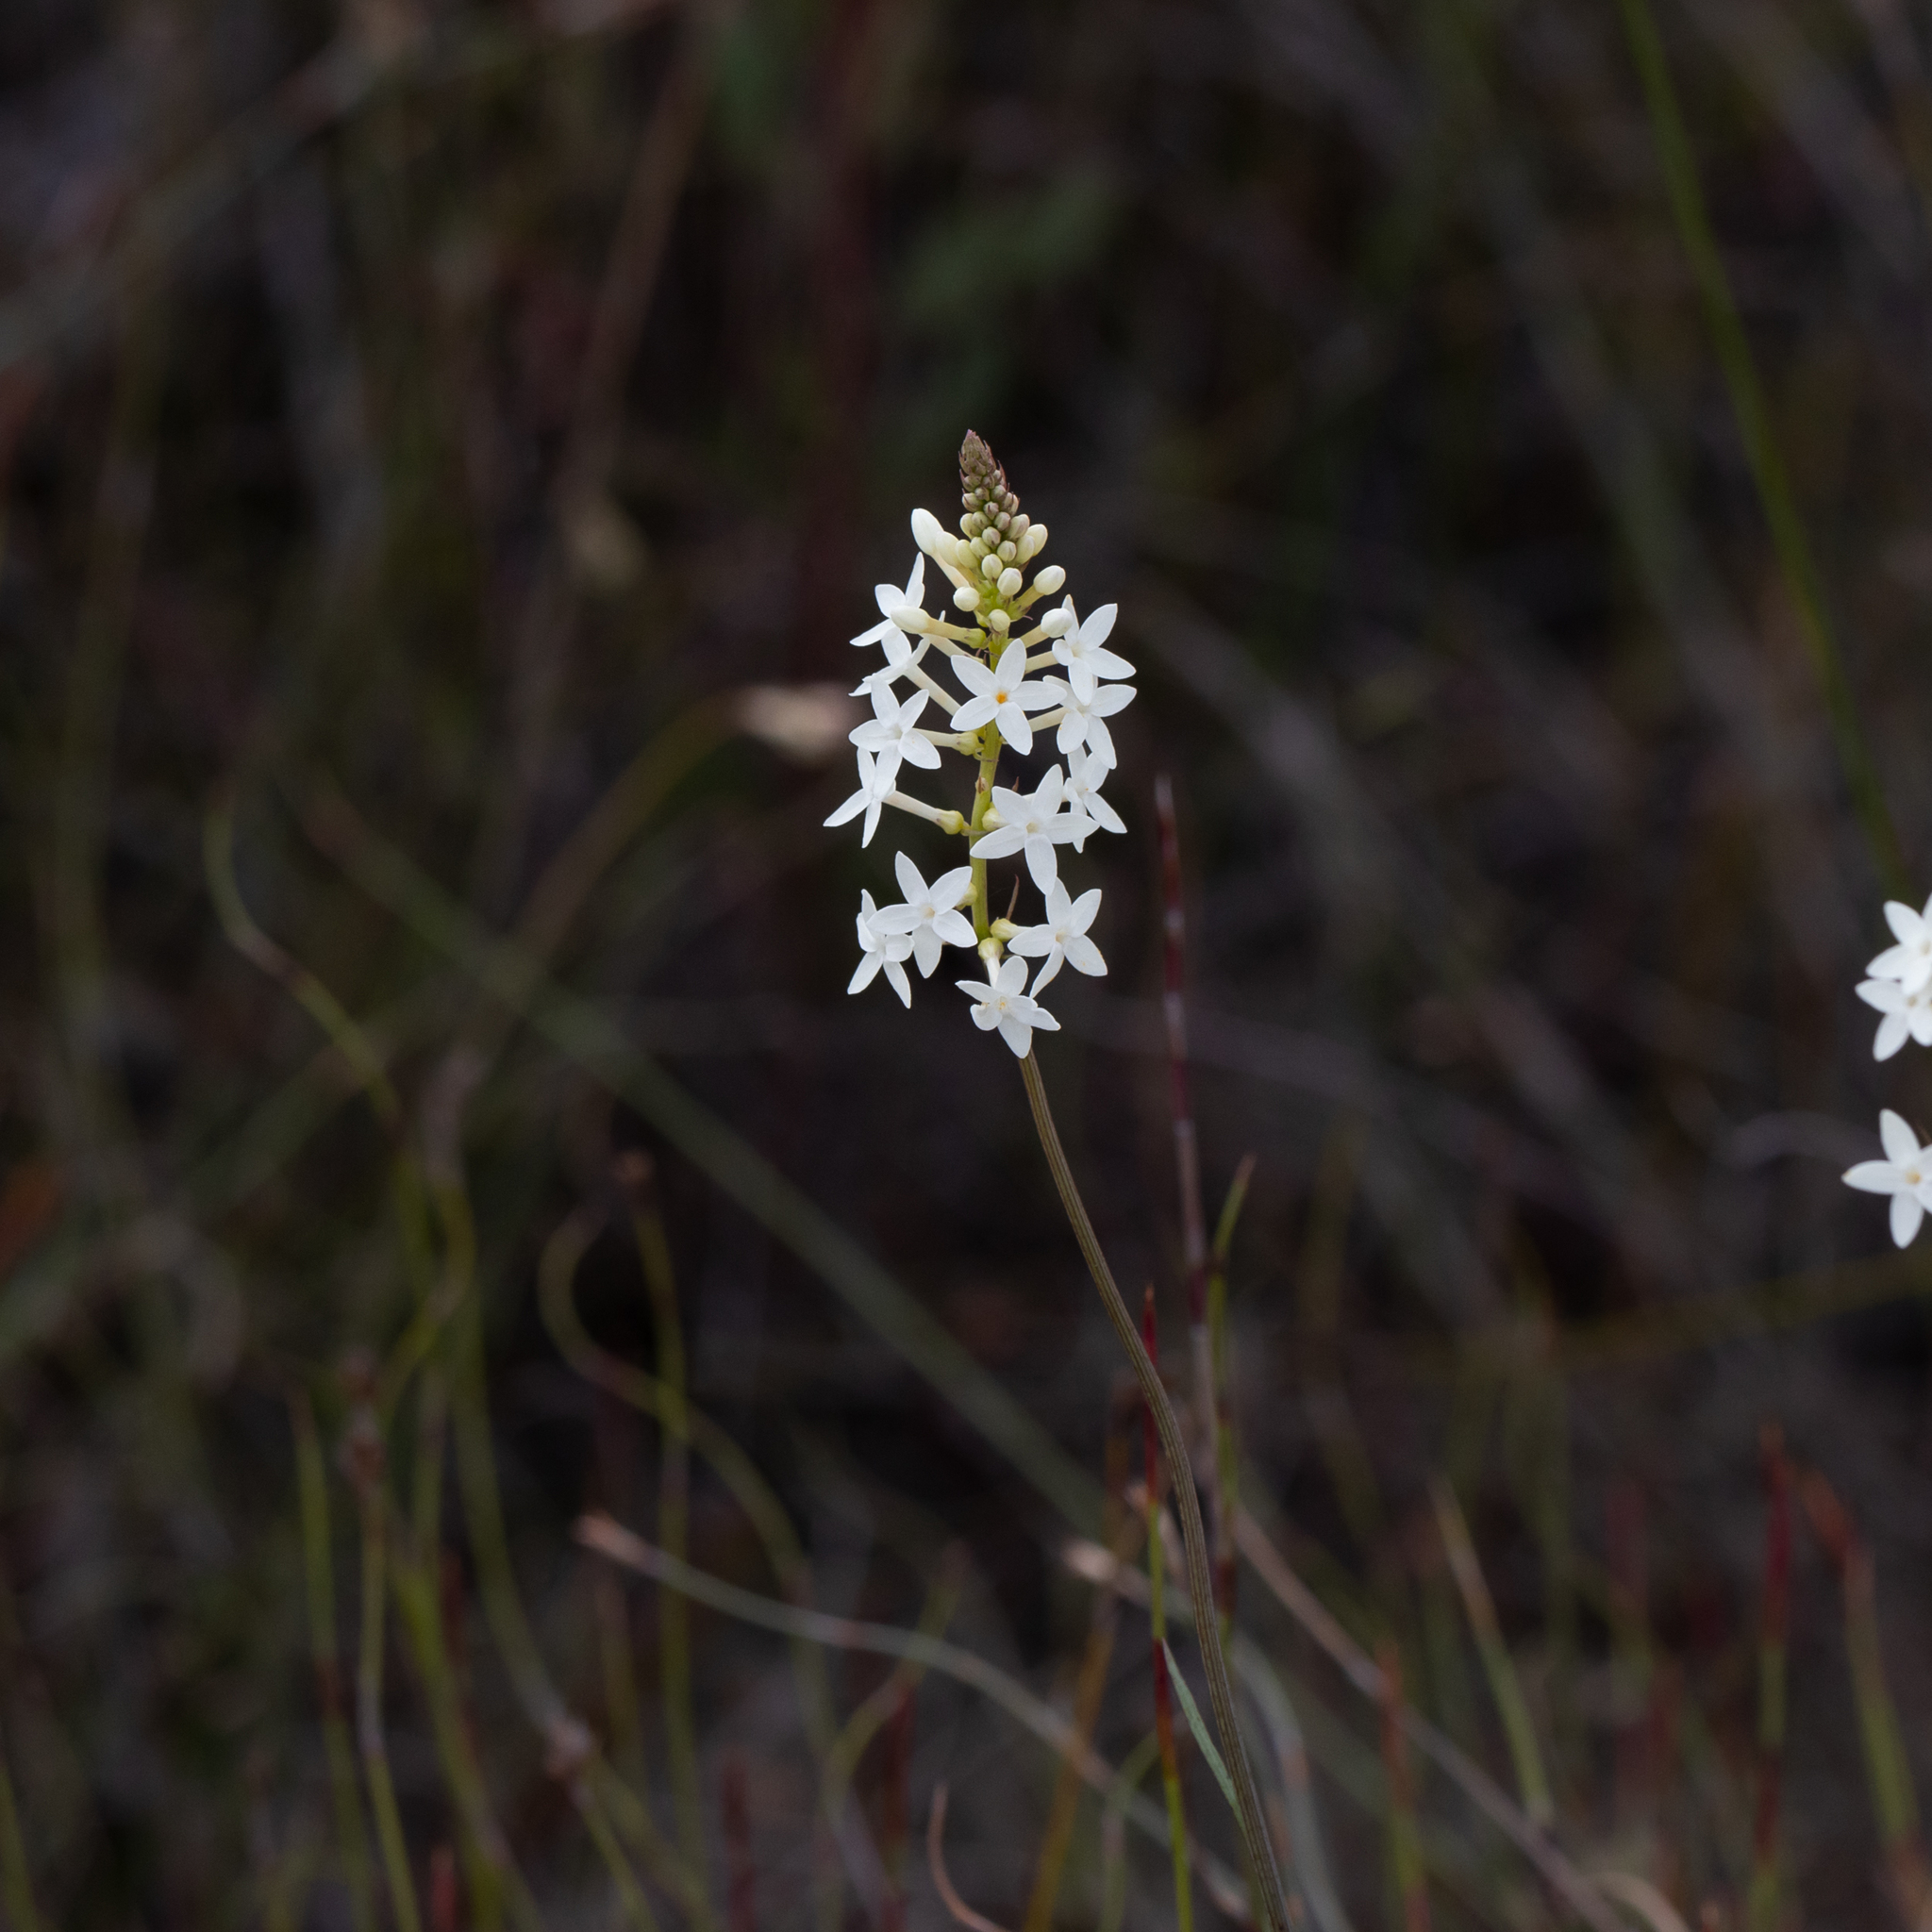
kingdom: Plantae
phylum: Tracheophyta
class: Magnoliopsida
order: Celastrales
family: Celastraceae
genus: Stackhousia
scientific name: Stackhousia monogyna
